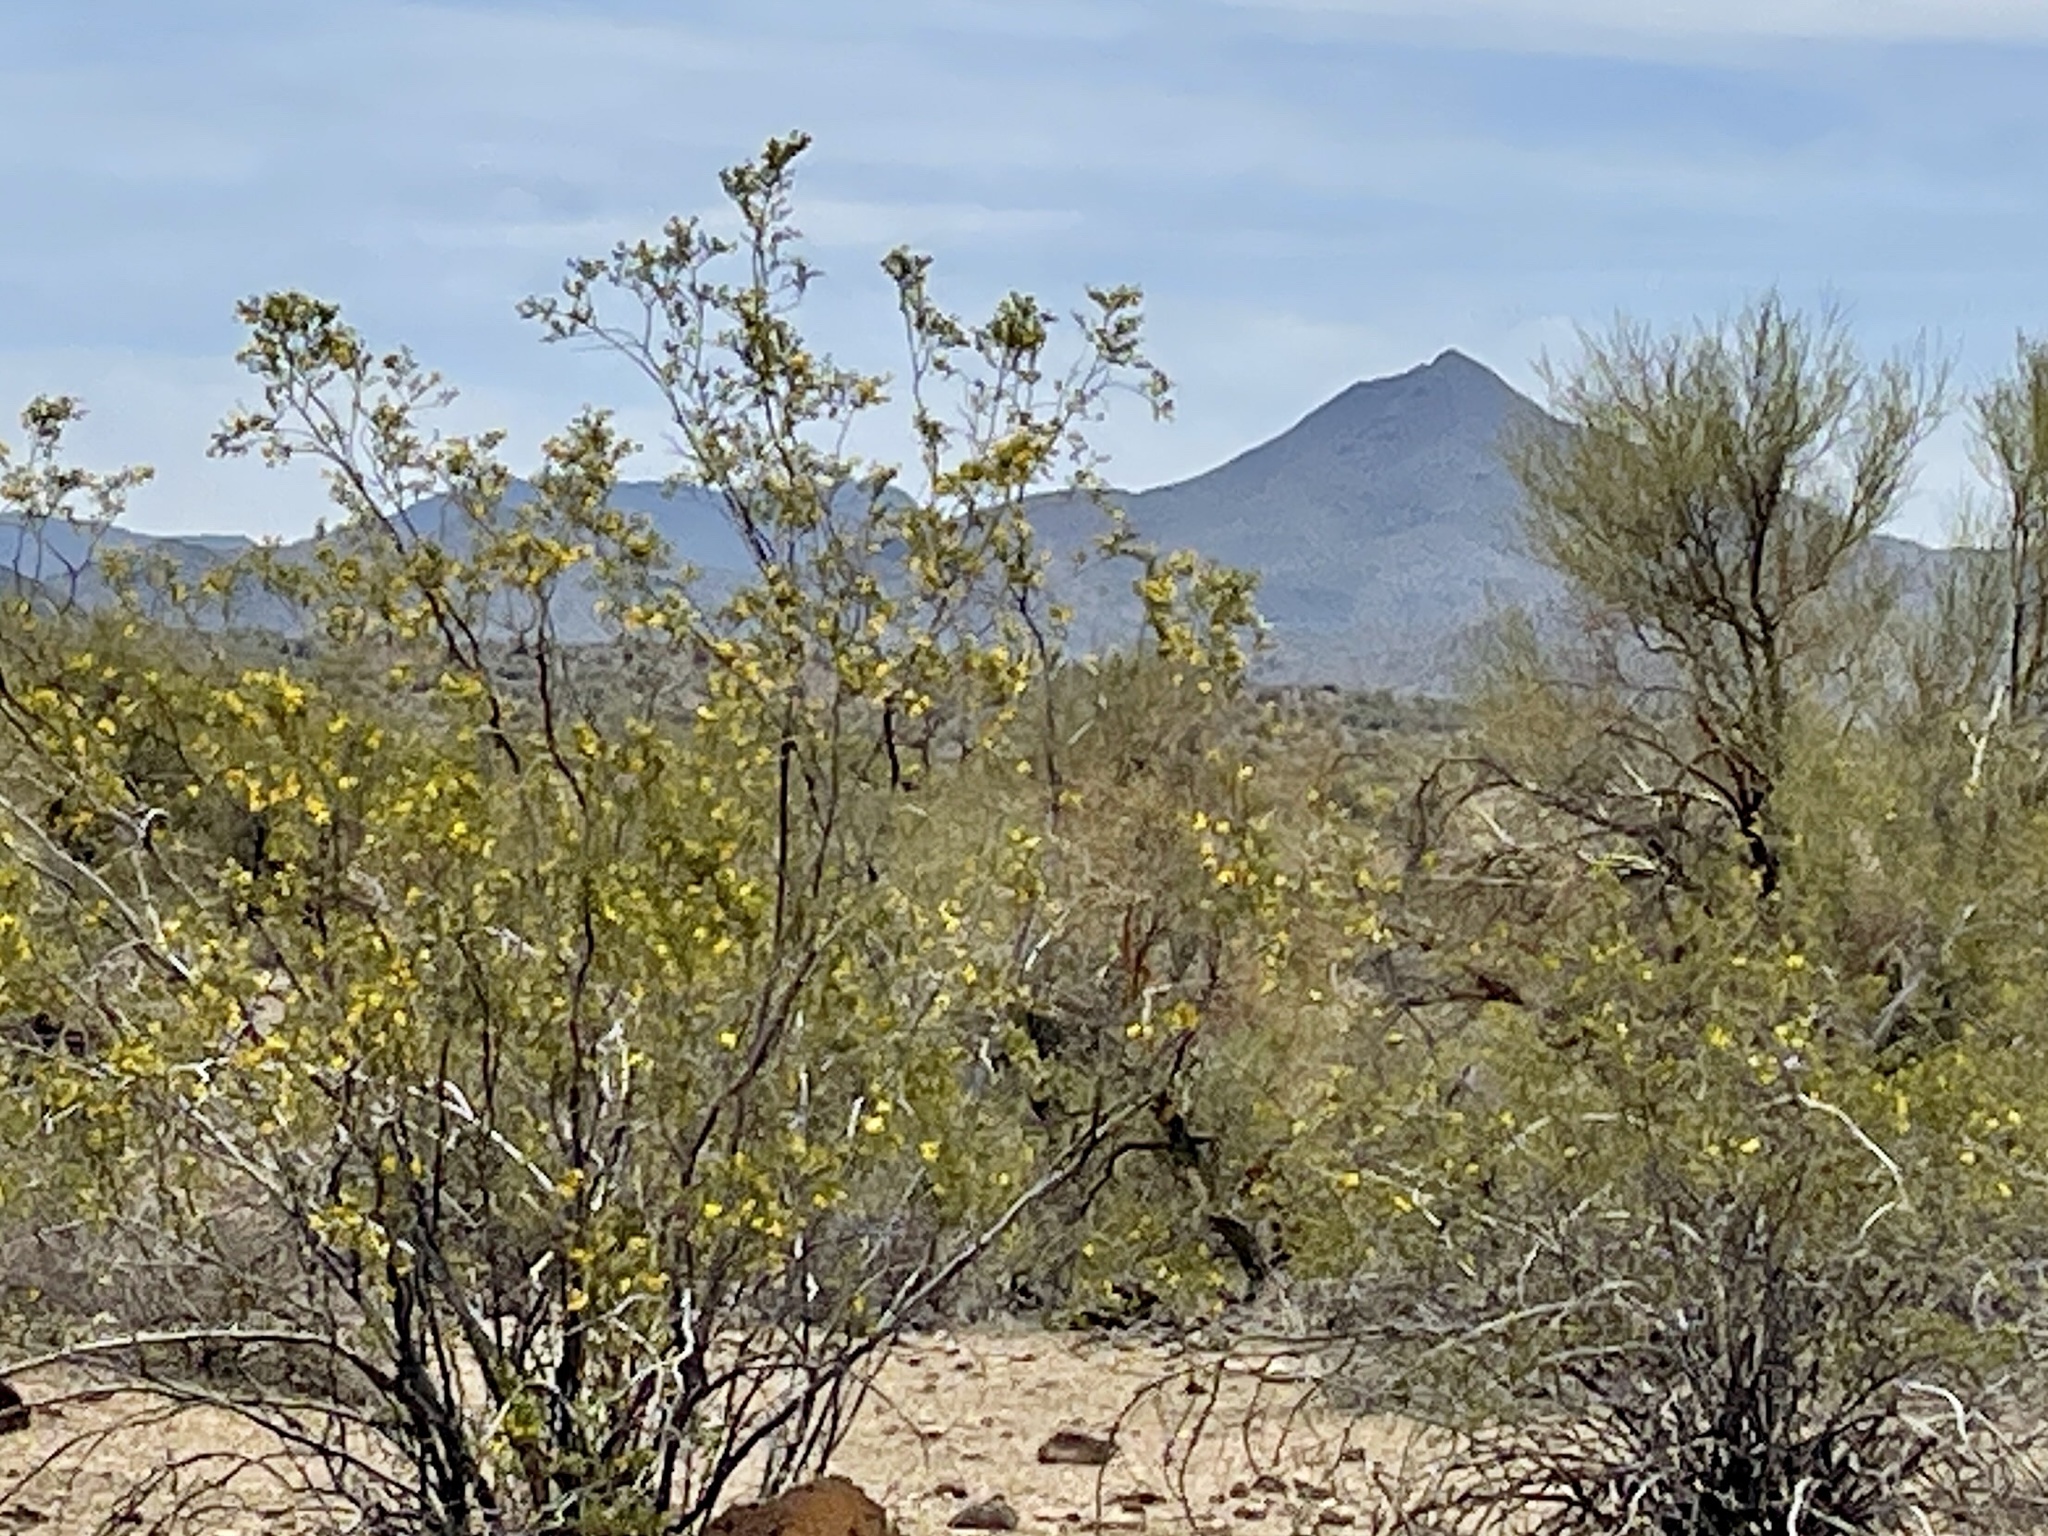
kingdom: Plantae
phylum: Tracheophyta
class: Magnoliopsida
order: Zygophyllales
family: Zygophyllaceae
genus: Larrea
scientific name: Larrea tridentata
